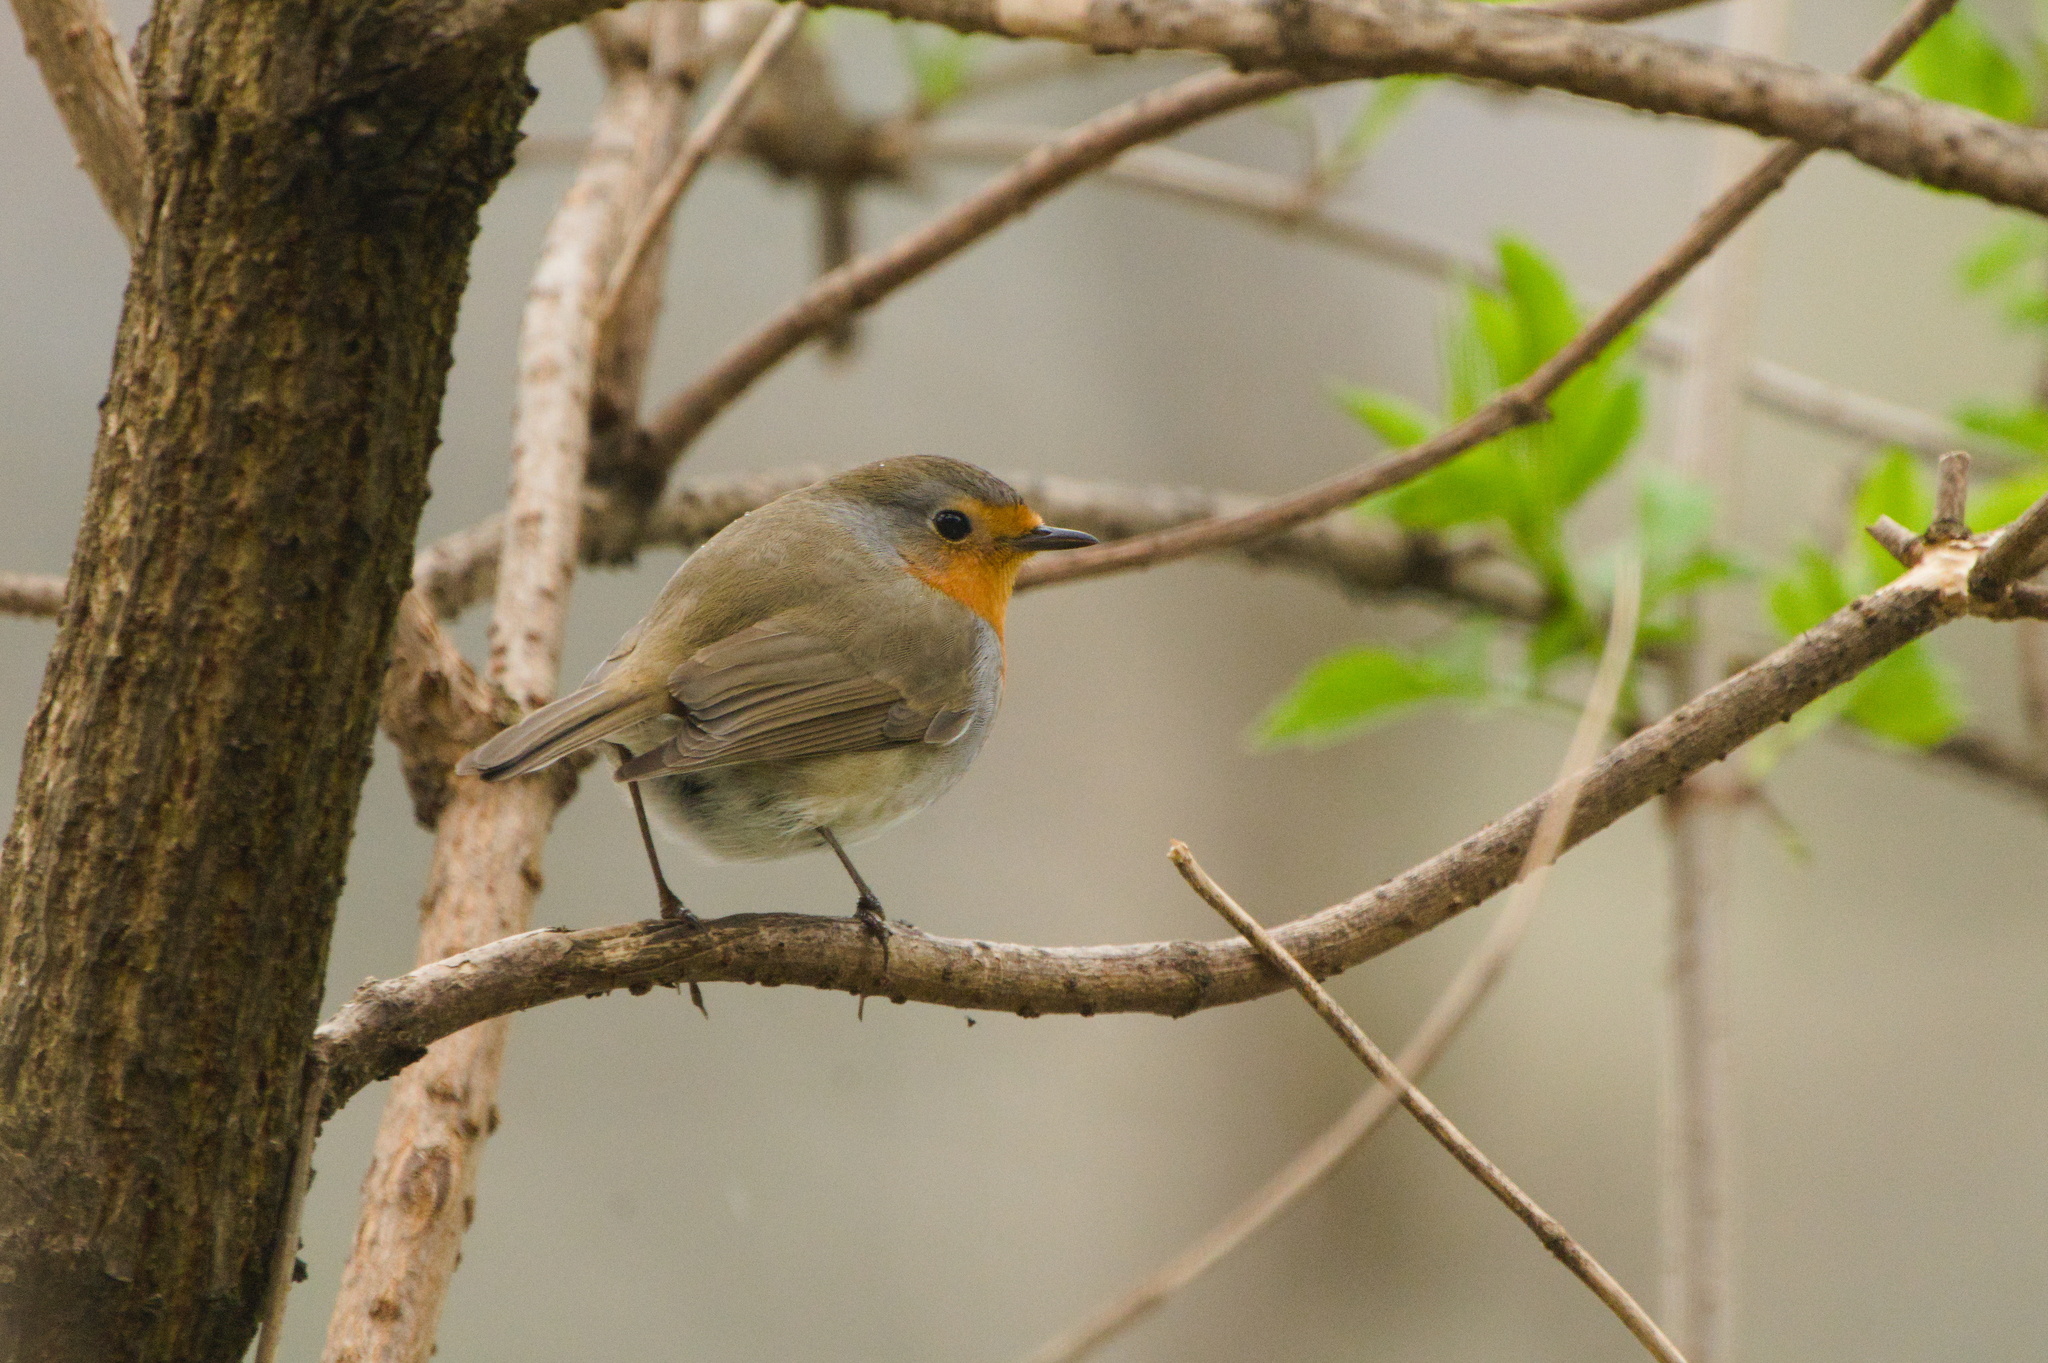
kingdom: Animalia
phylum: Chordata
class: Aves
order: Passeriformes
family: Muscicapidae
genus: Erithacus
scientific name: Erithacus rubecula
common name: European robin
